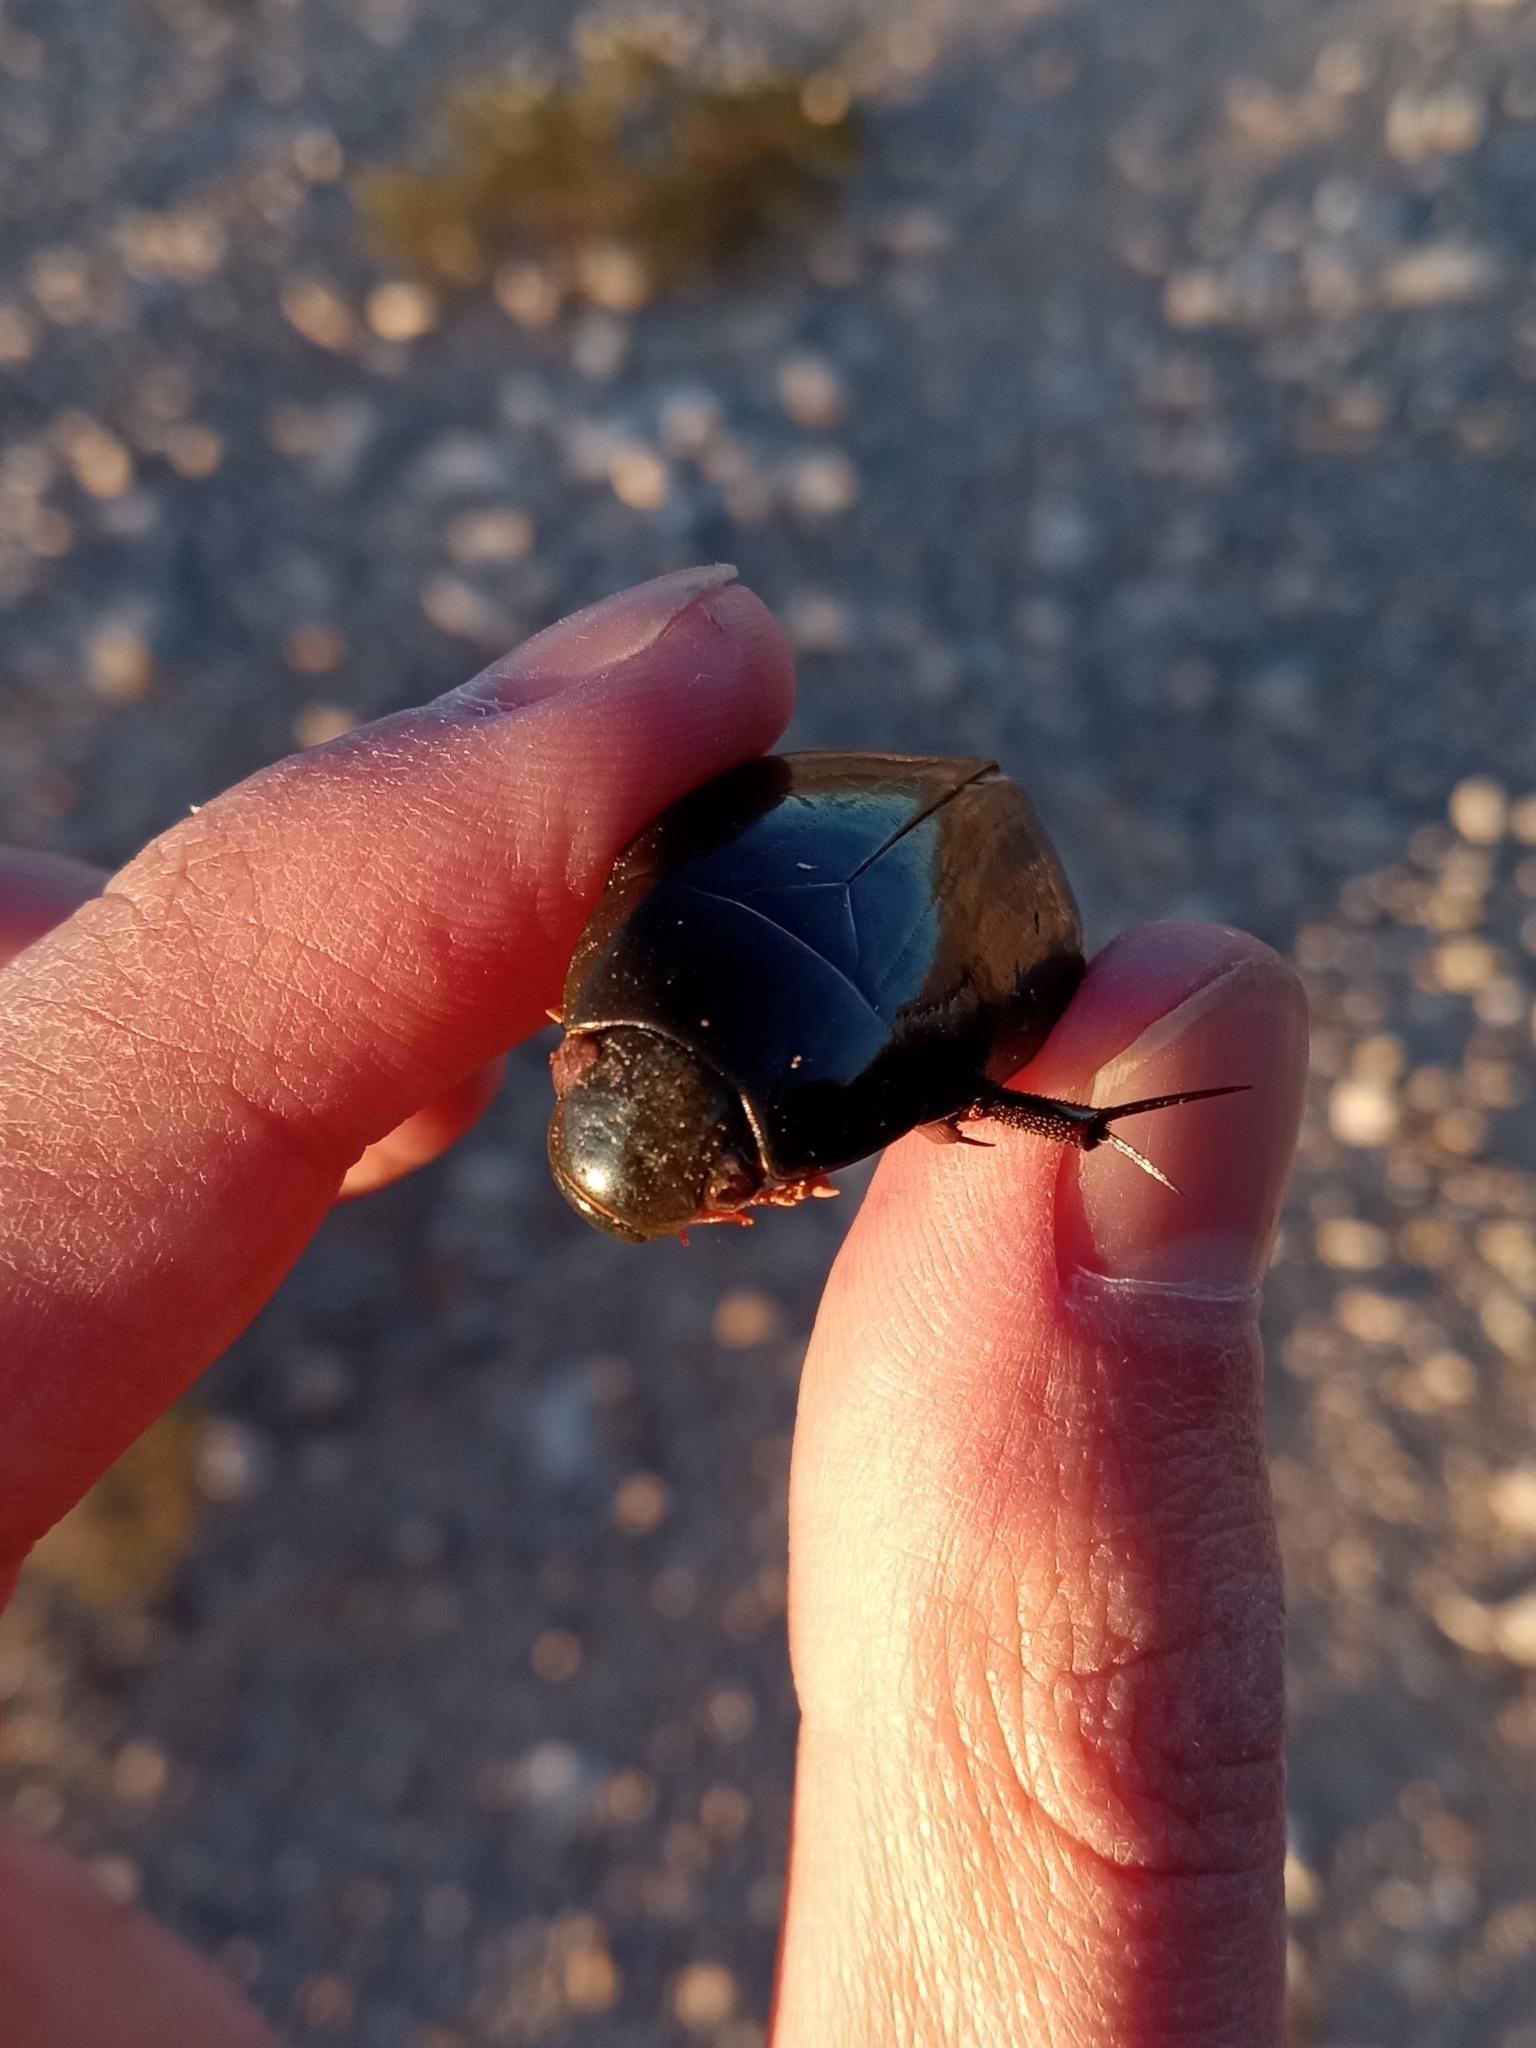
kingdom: Animalia
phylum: Arthropoda
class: Insecta
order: Coleoptera
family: Hydrophilidae
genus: Hydrophilus
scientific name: Hydrophilus
